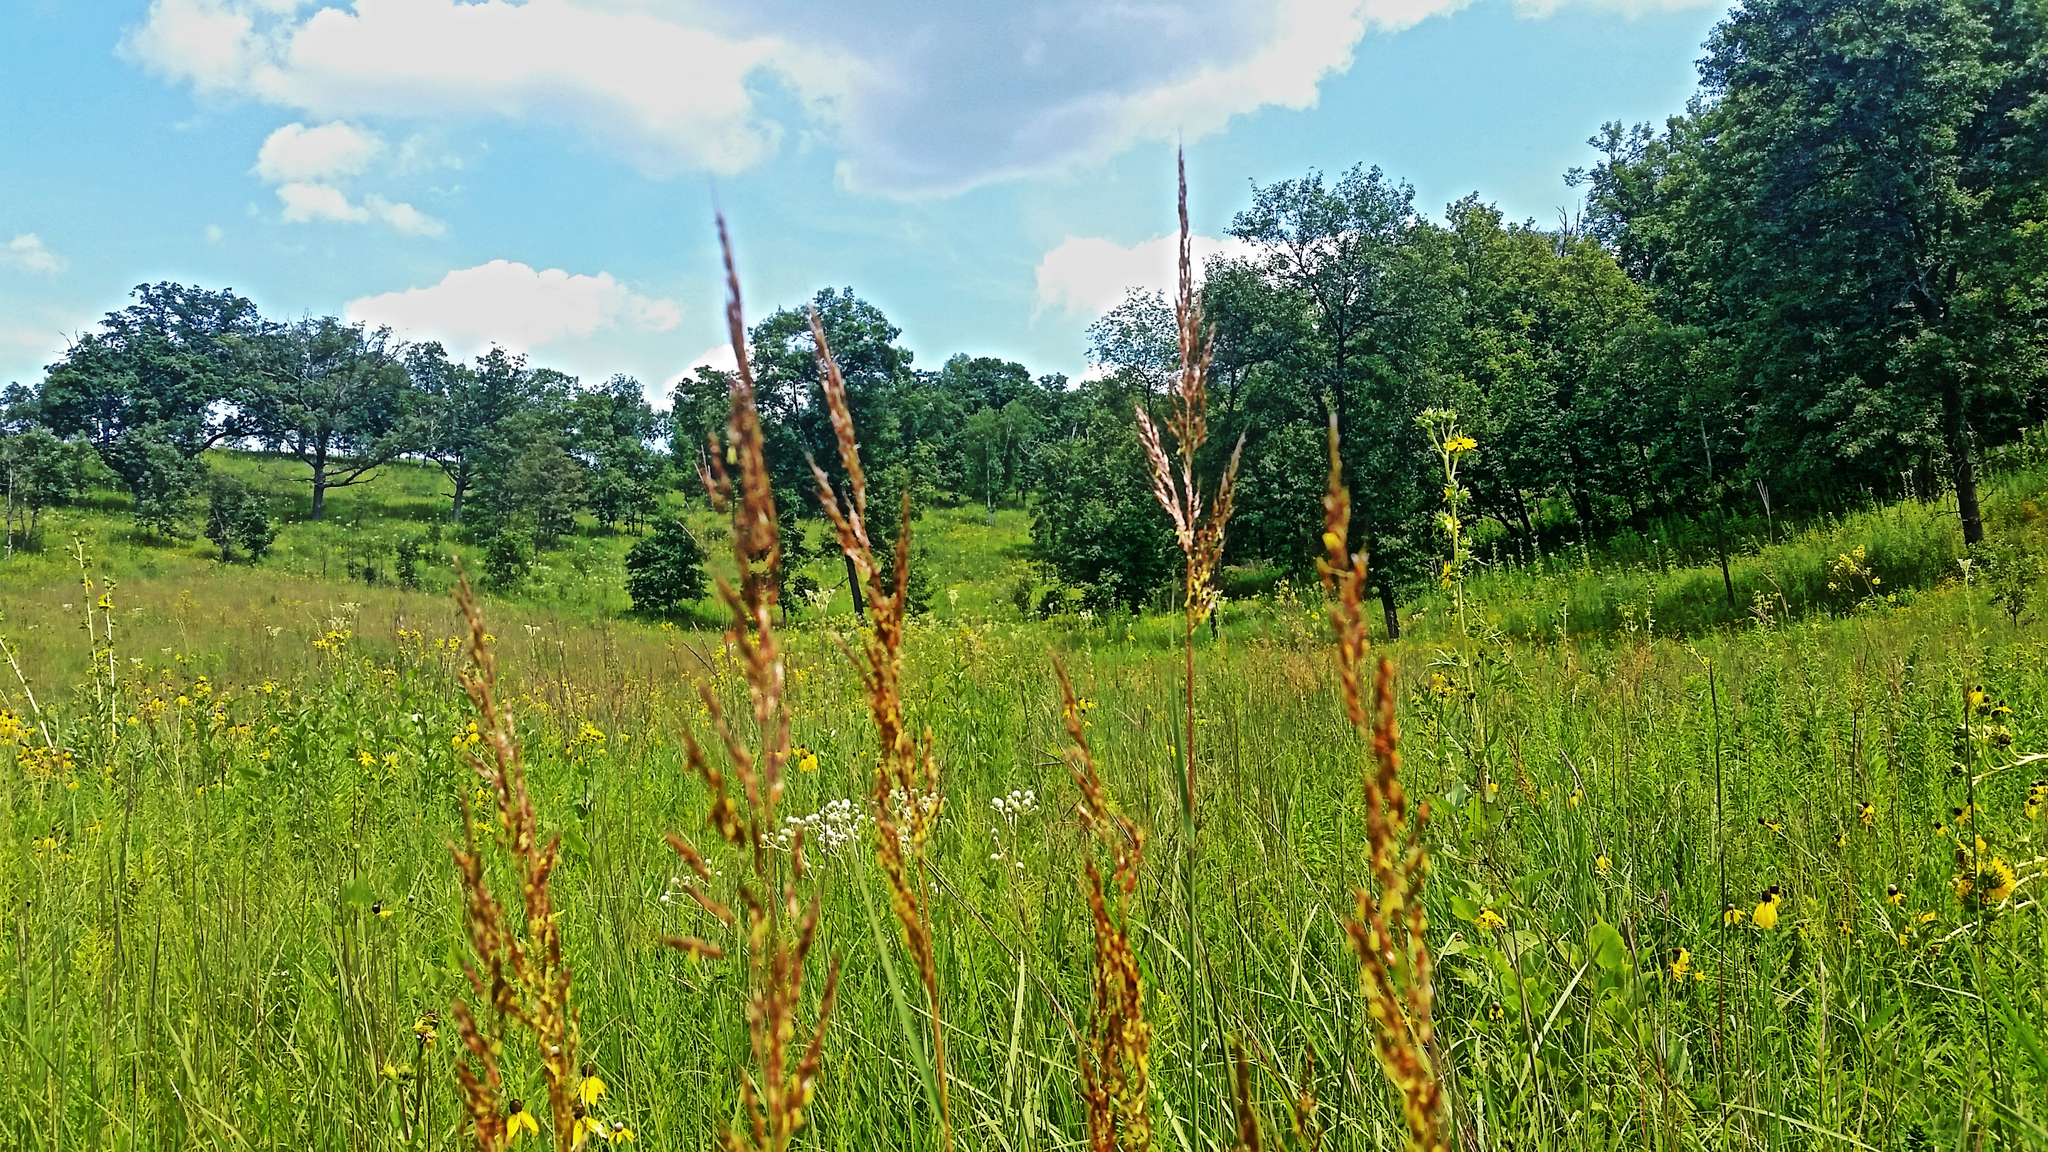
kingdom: Plantae
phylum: Tracheophyta
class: Liliopsida
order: Poales
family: Poaceae
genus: Sorghastrum
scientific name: Sorghastrum nutans
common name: Indian grass
